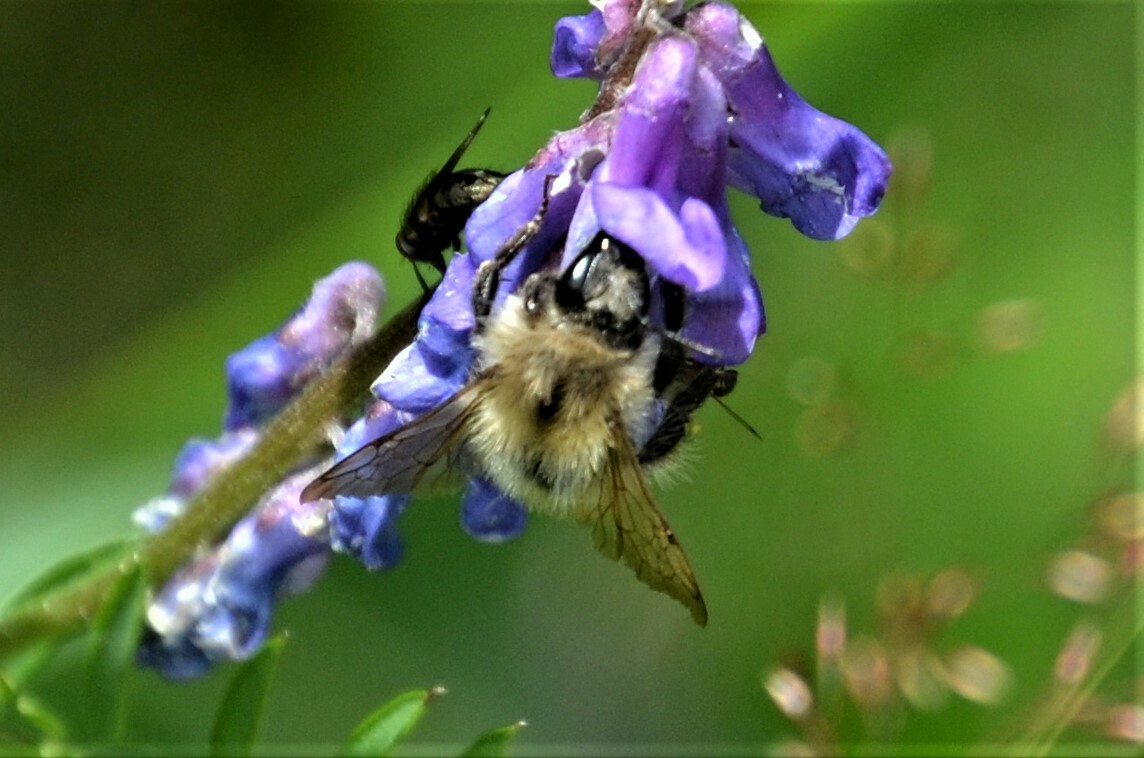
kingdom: Animalia
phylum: Arthropoda
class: Insecta
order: Hymenoptera
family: Apidae
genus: Bombus
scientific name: Bombus pascuorum
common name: Common carder bee
